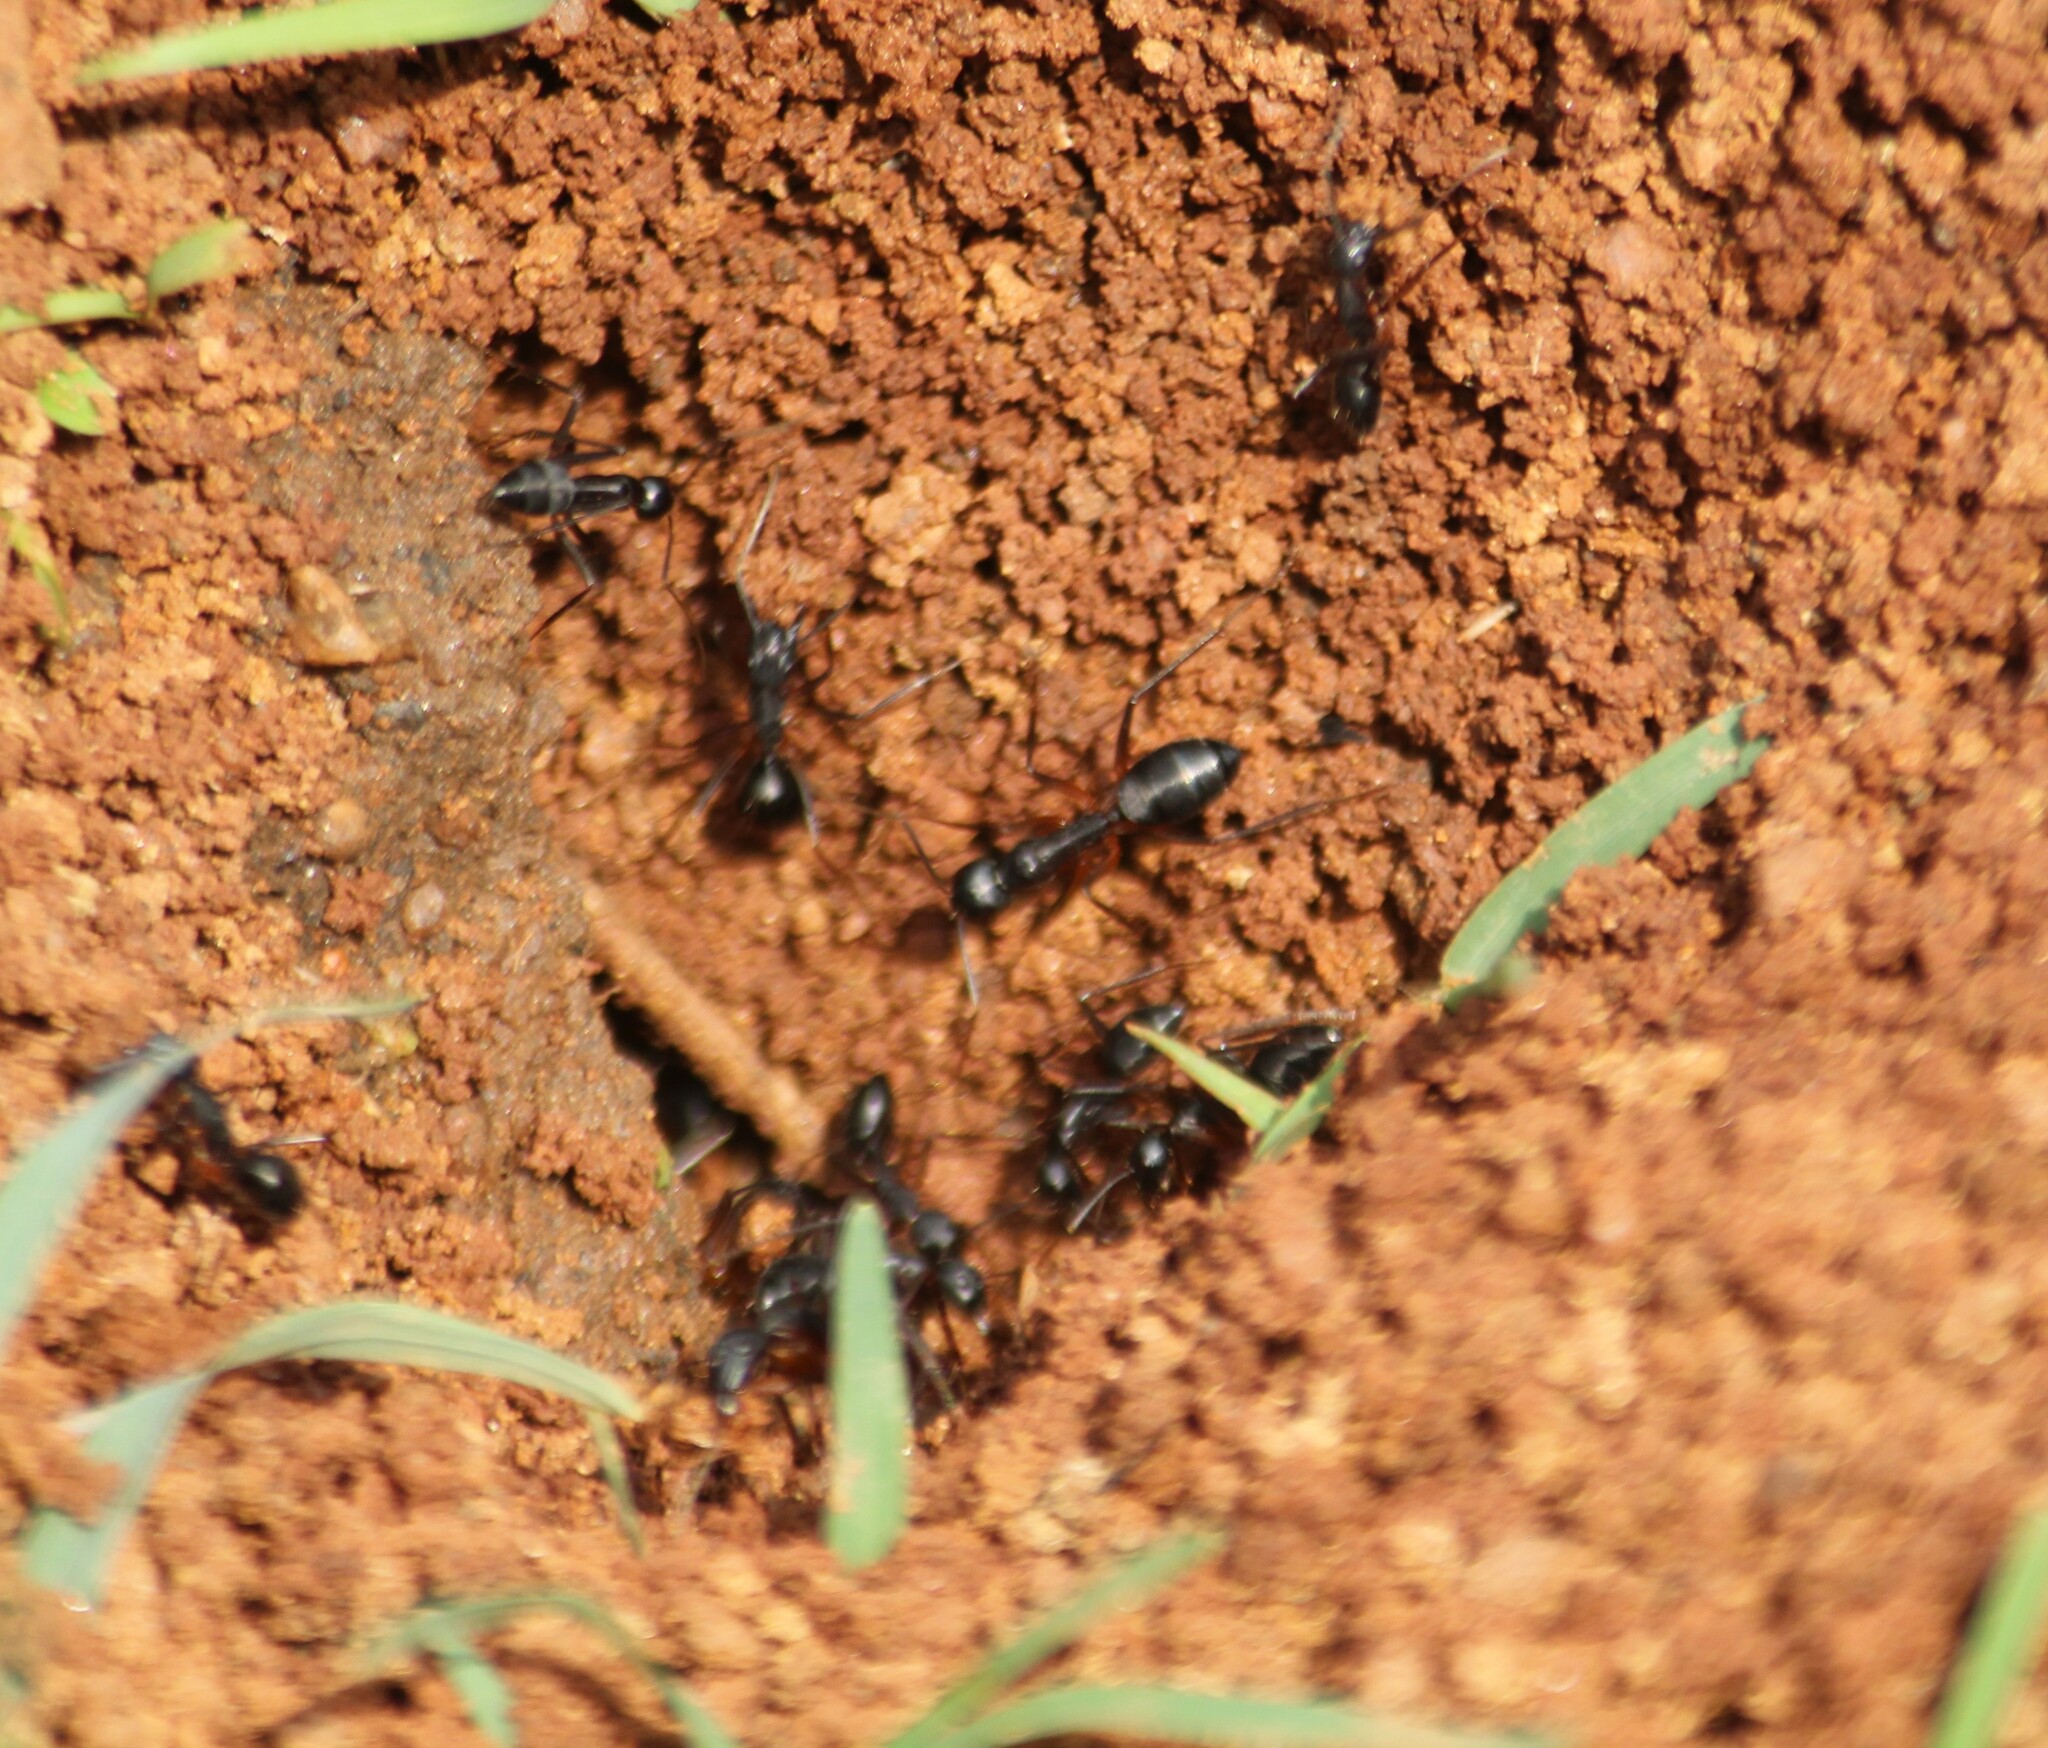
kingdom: Animalia
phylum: Arthropoda
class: Insecta
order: Hymenoptera
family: Formicidae
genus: Camponotus
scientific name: Camponotus compressus
